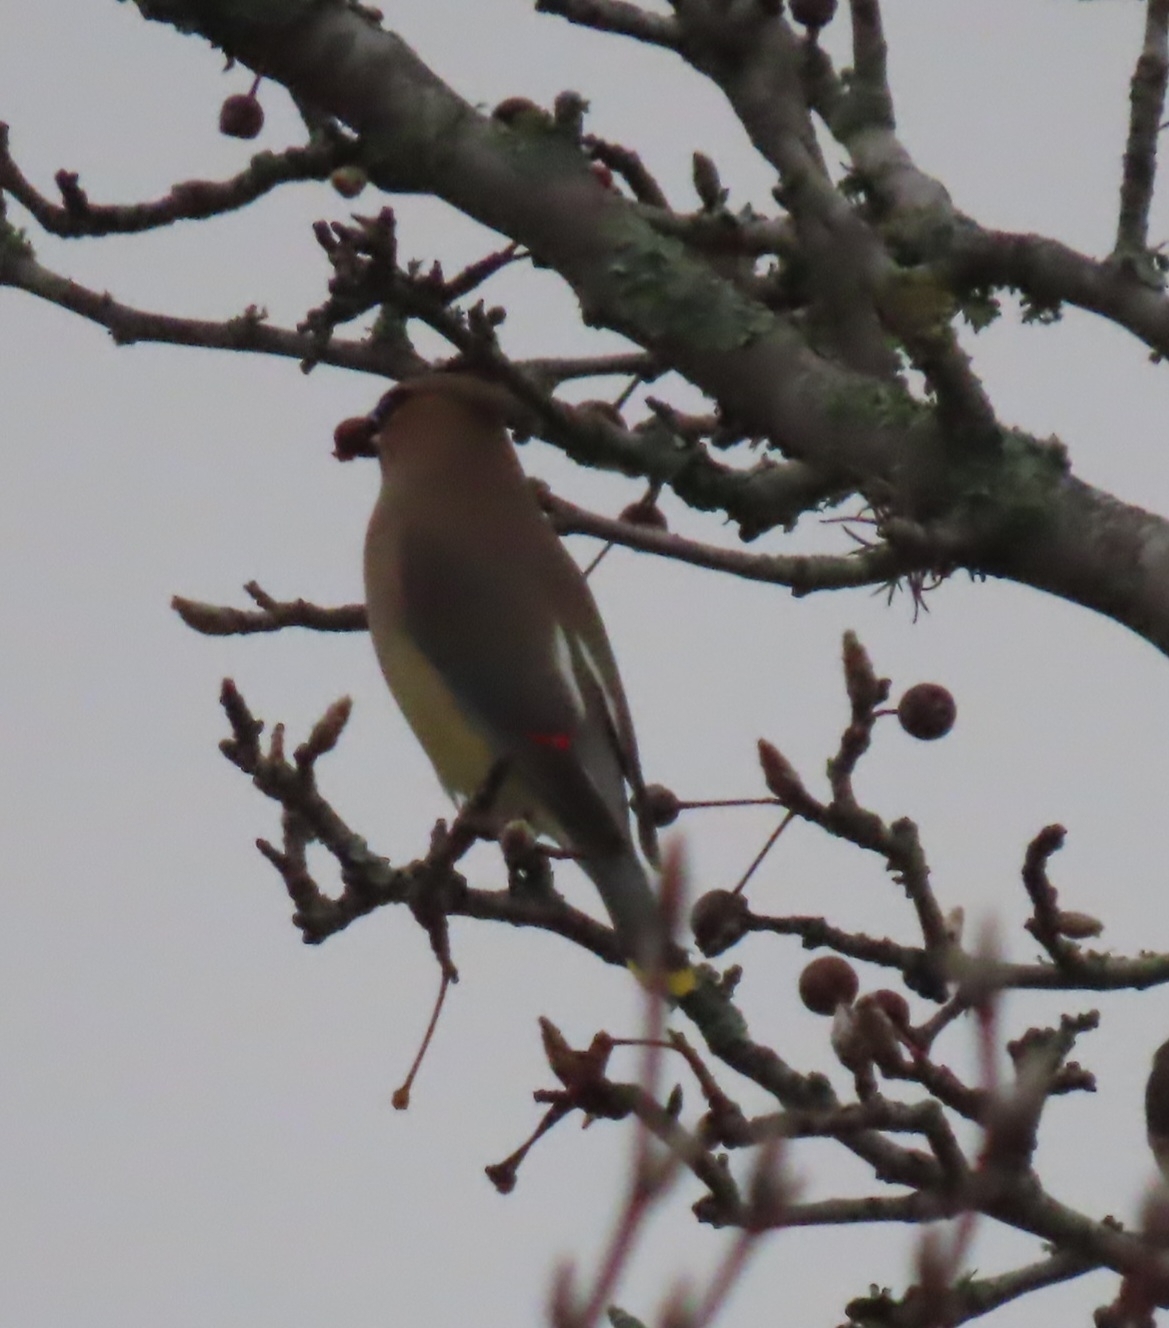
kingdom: Animalia
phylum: Chordata
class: Aves
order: Passeriformes
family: Bombycillidae
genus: Bombycilla
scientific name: Bombycilla cedrorum
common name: Cedar waxwing
